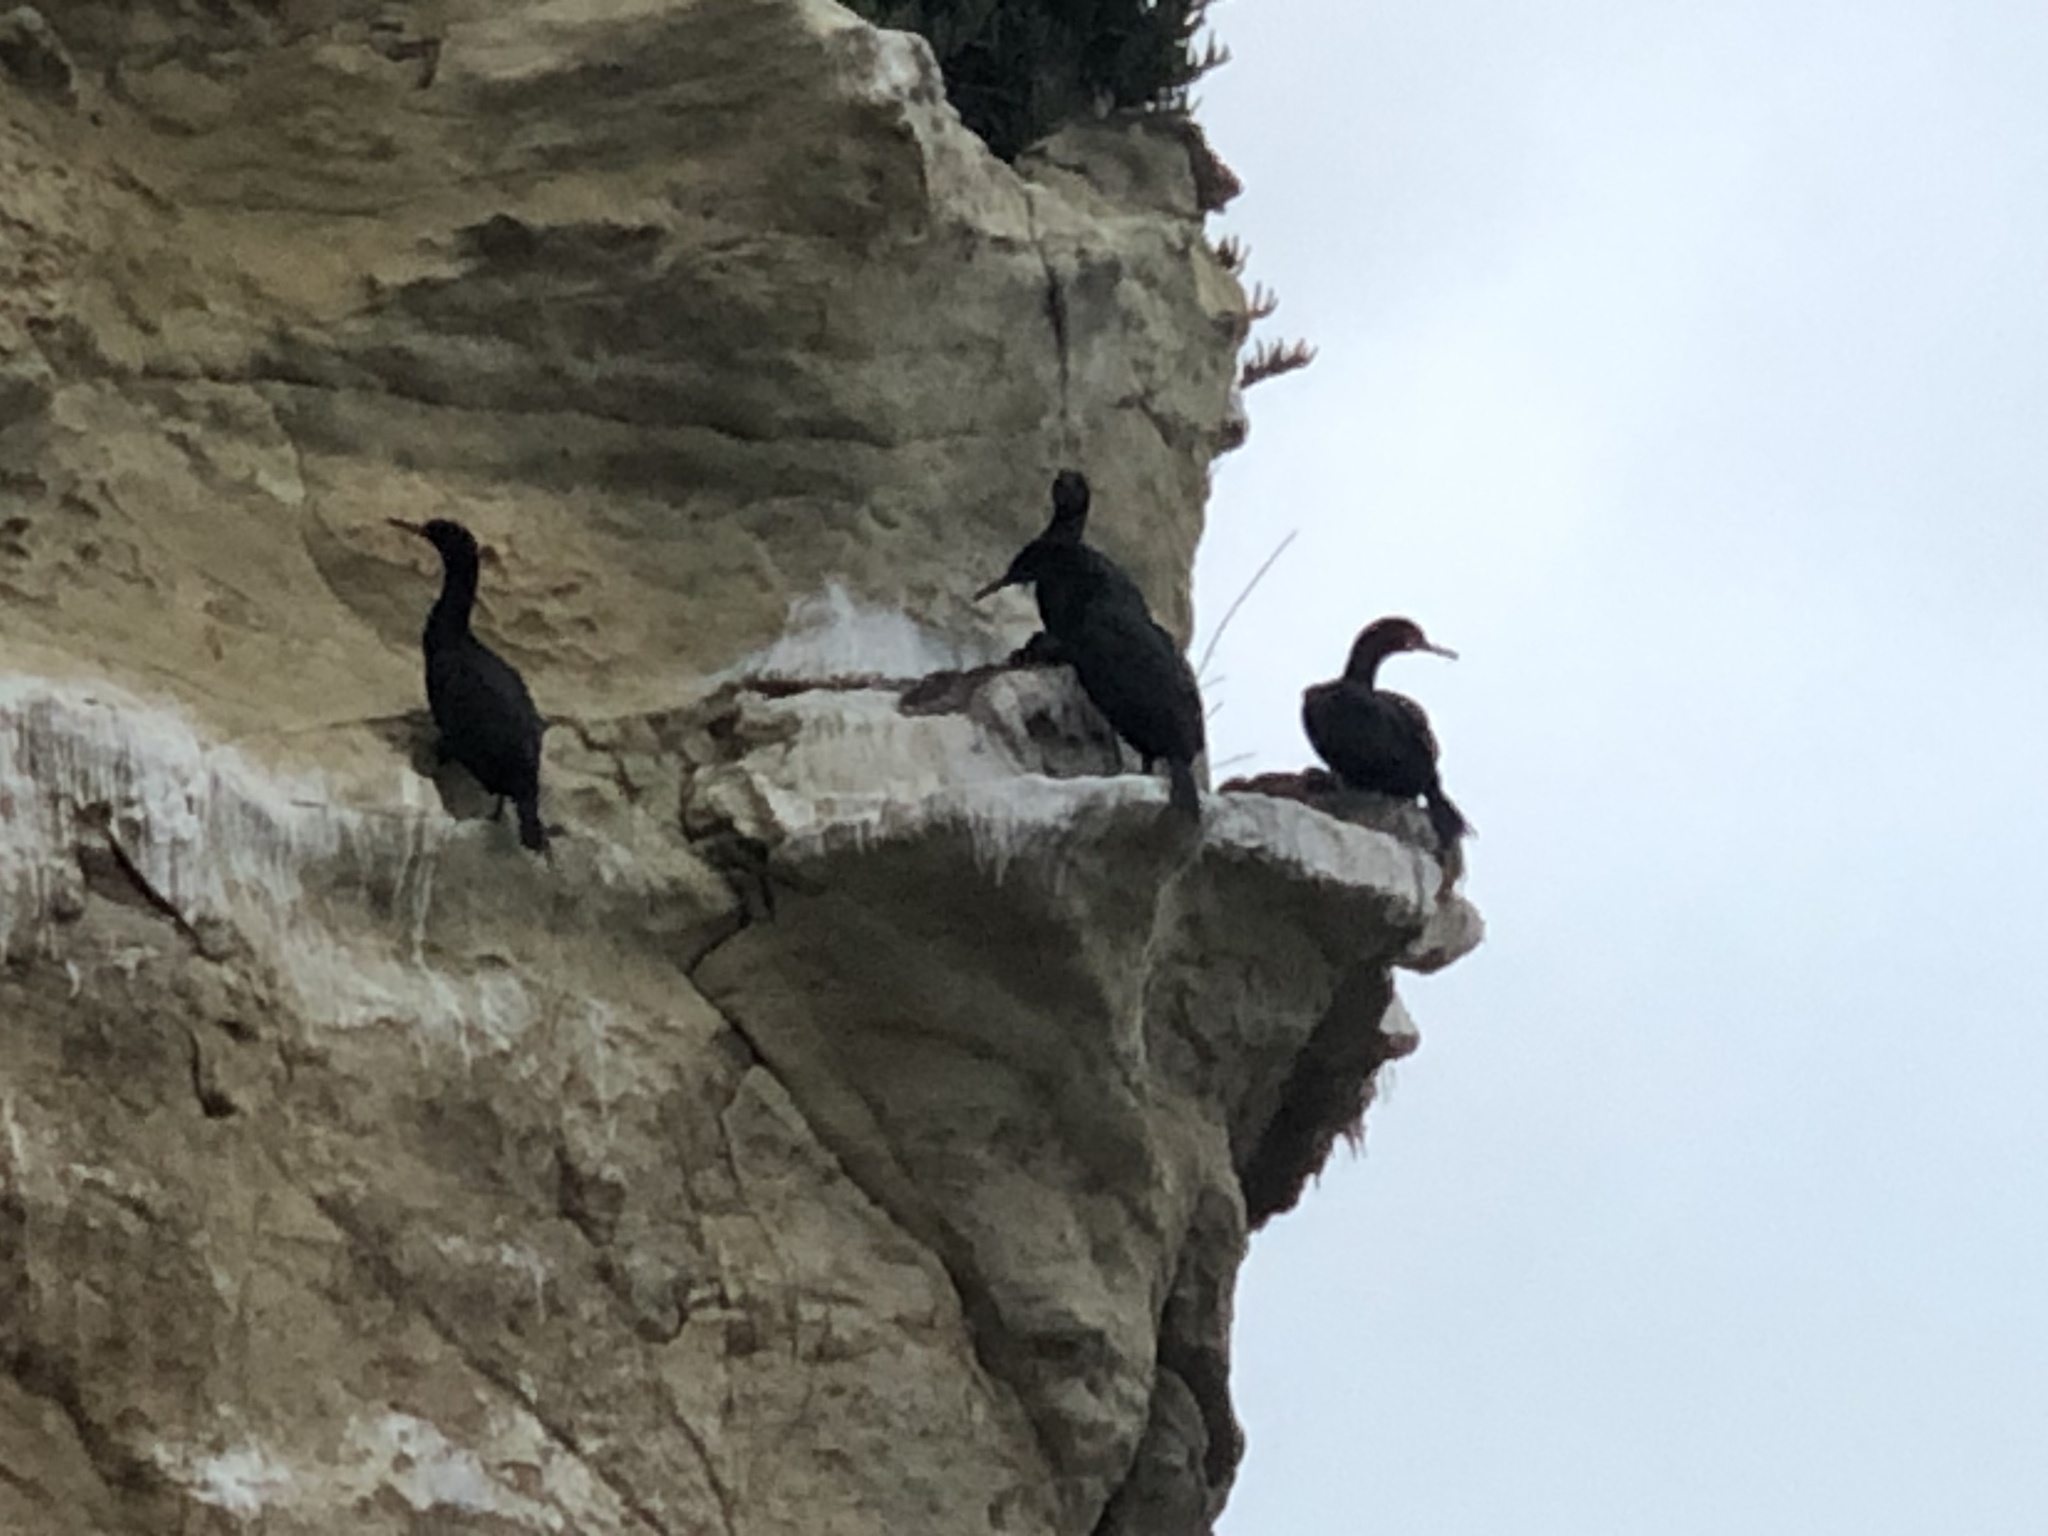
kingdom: Animalia
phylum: Chordata
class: Aves
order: Suliformes
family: Phalacrocoracidae
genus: Urile
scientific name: Urile penicillatus
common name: Brandt's cormorant
